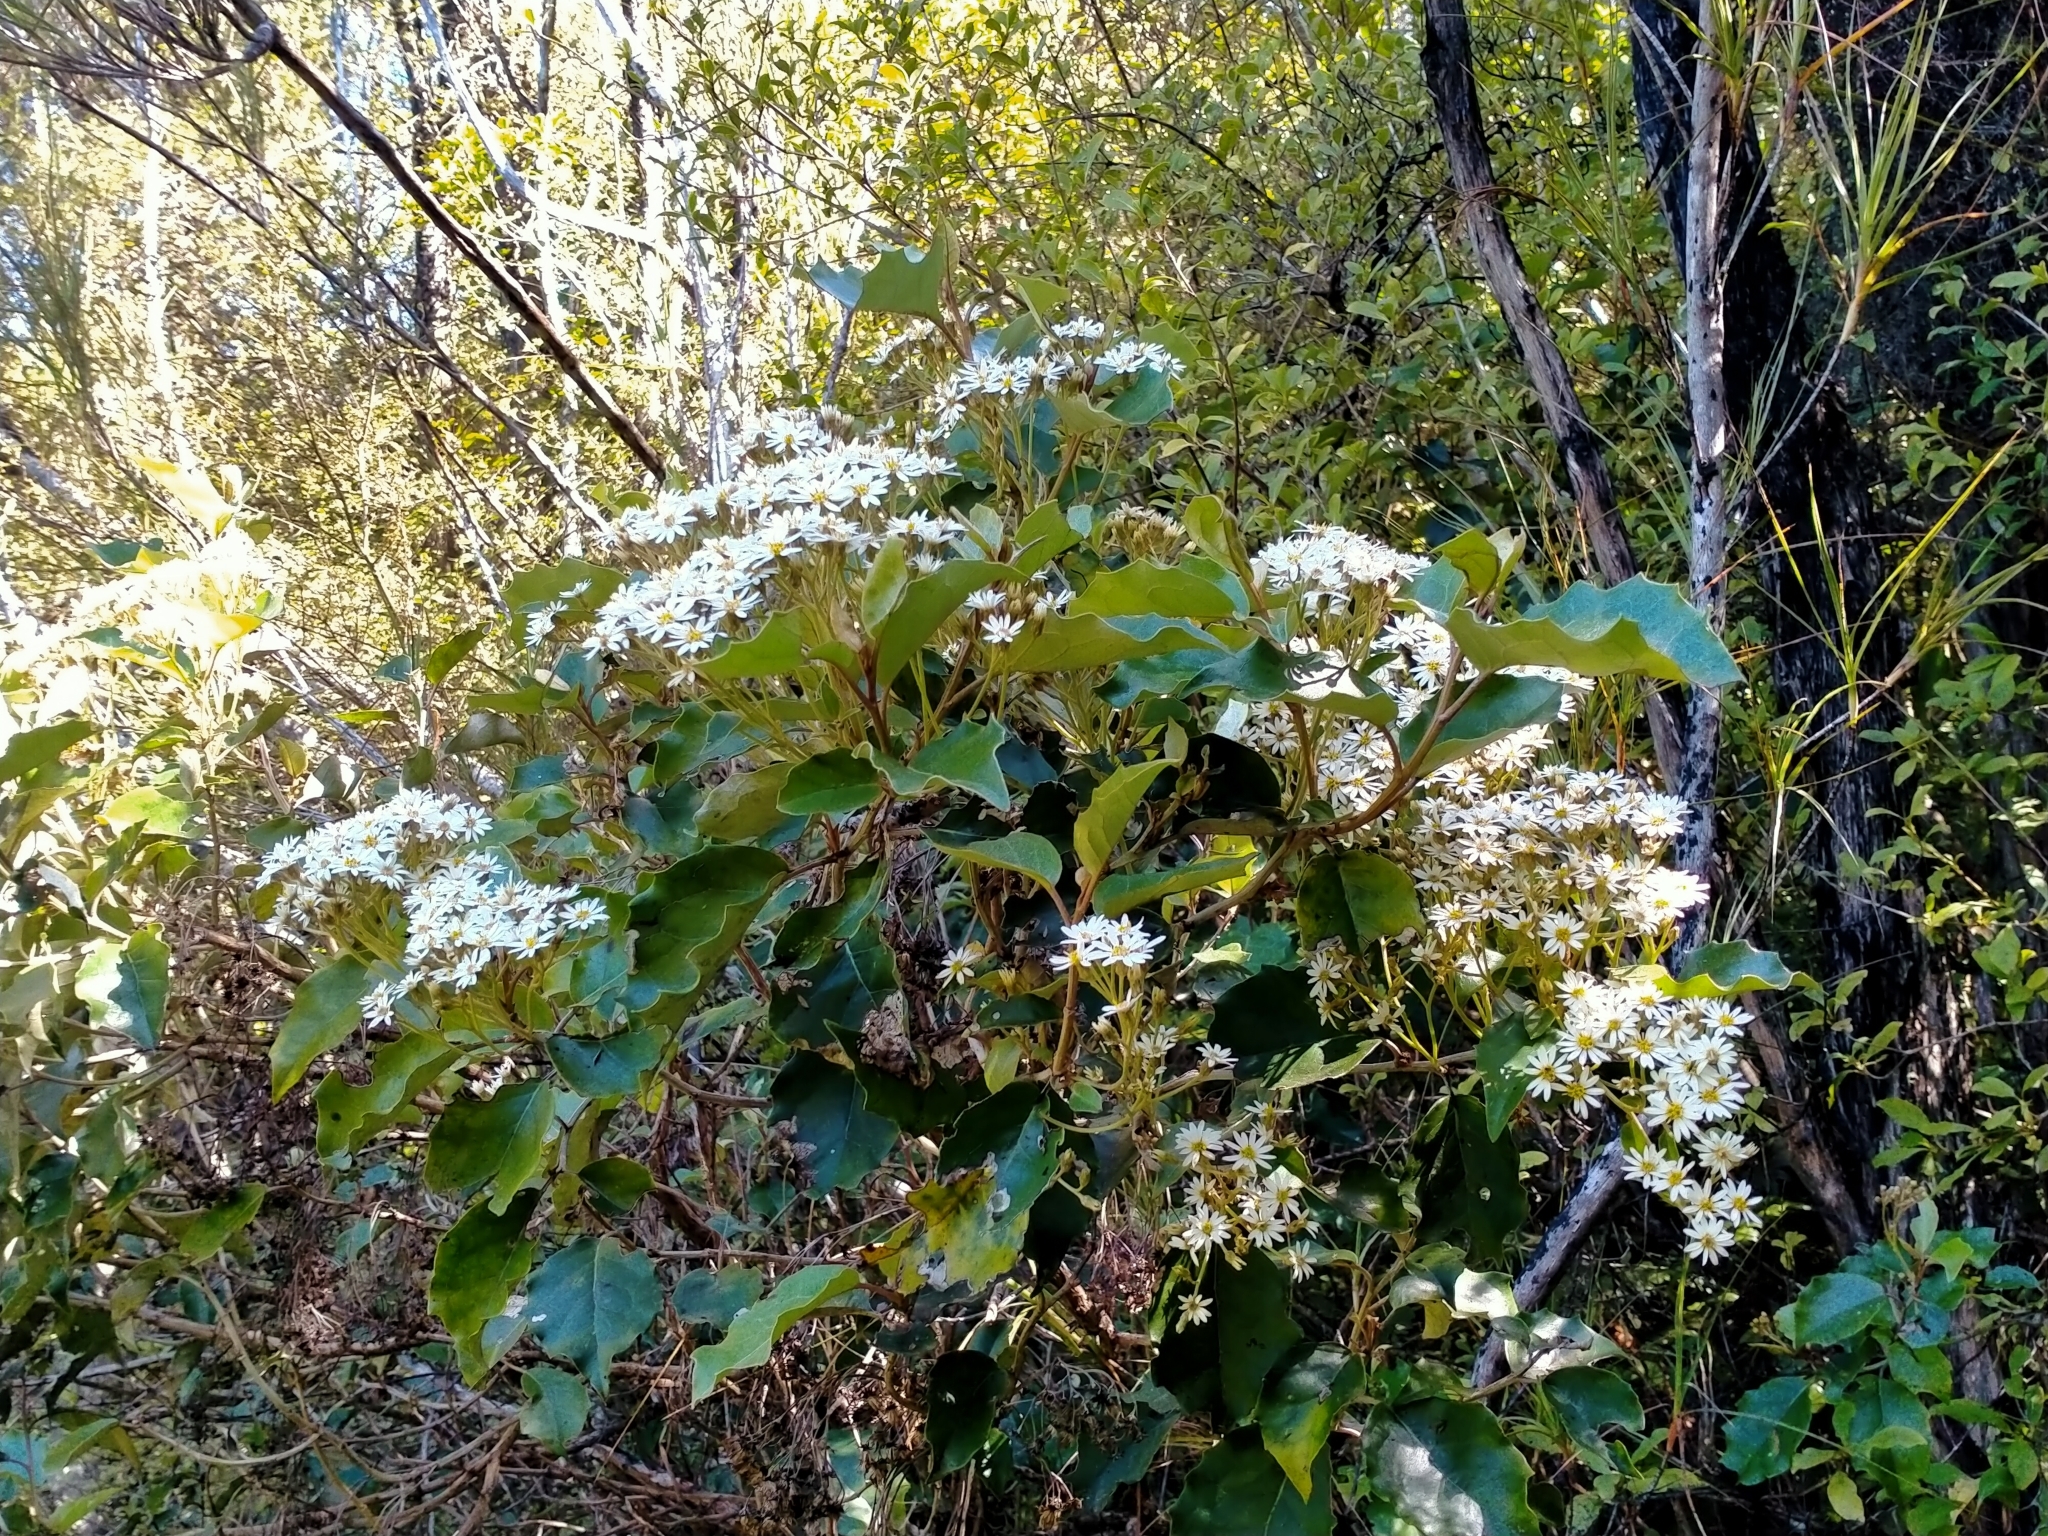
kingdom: Plantae
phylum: Tracheophyta
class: Magnoliopsida
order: Asterales
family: Asteraceae
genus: Olearia
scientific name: Olearia arborescens
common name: Glossy tree daisy
